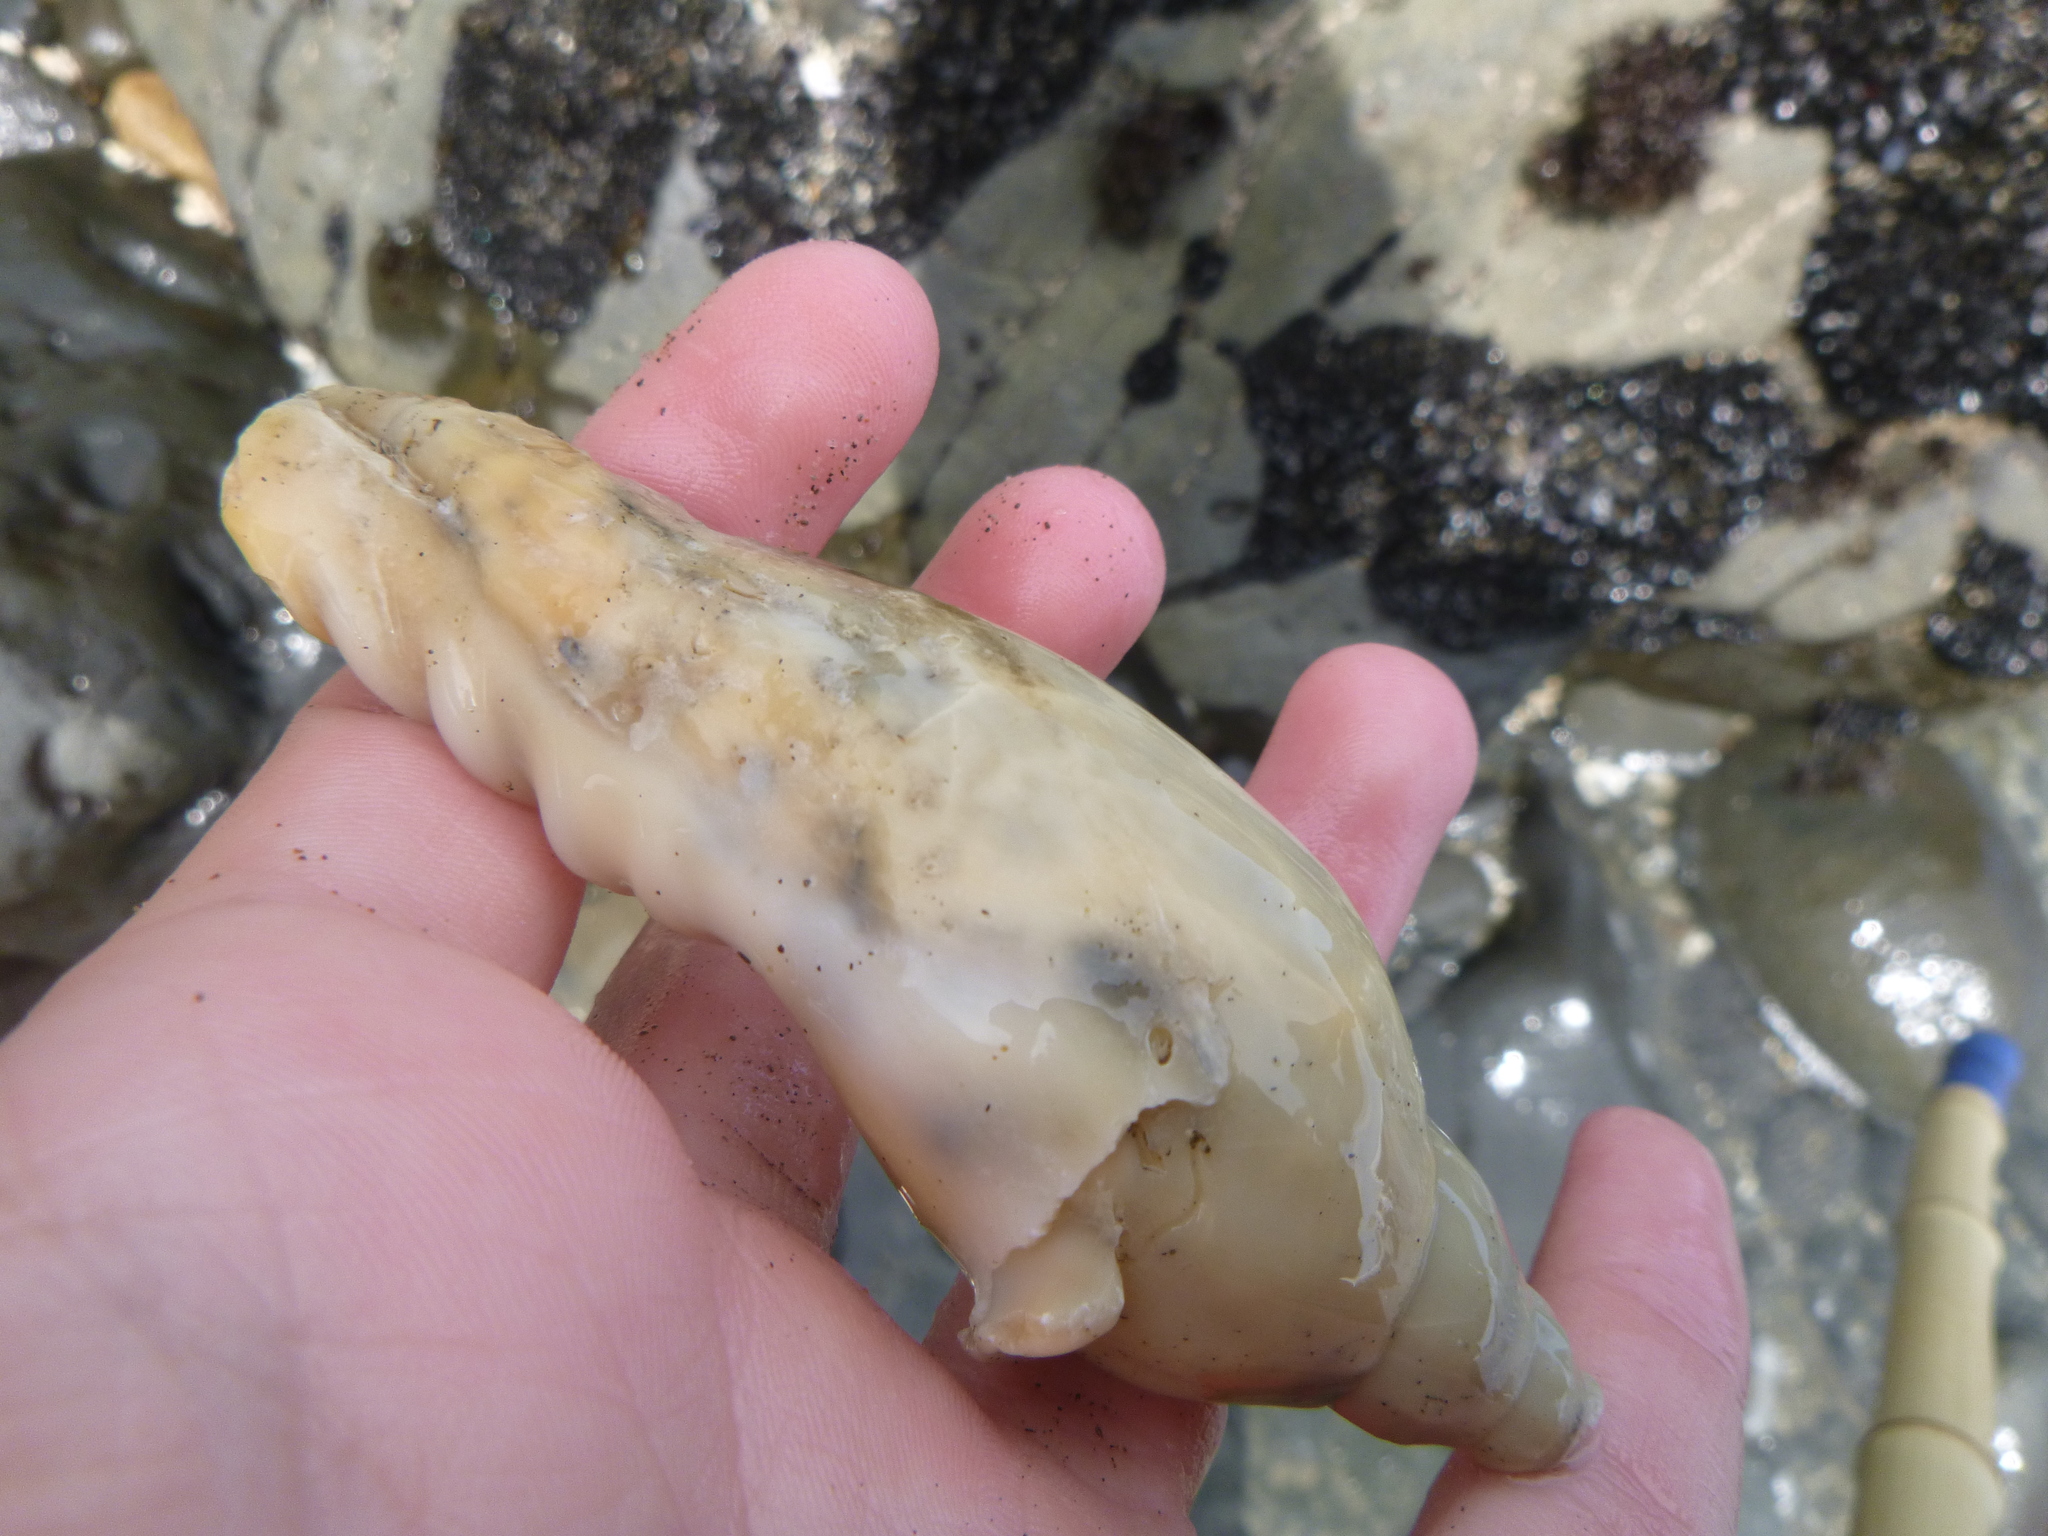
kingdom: Animalia
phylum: Mollusca
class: Gastropoda
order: Neogastropoda
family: Volutidae
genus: Alcithoe
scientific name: Alcithoe arabica
